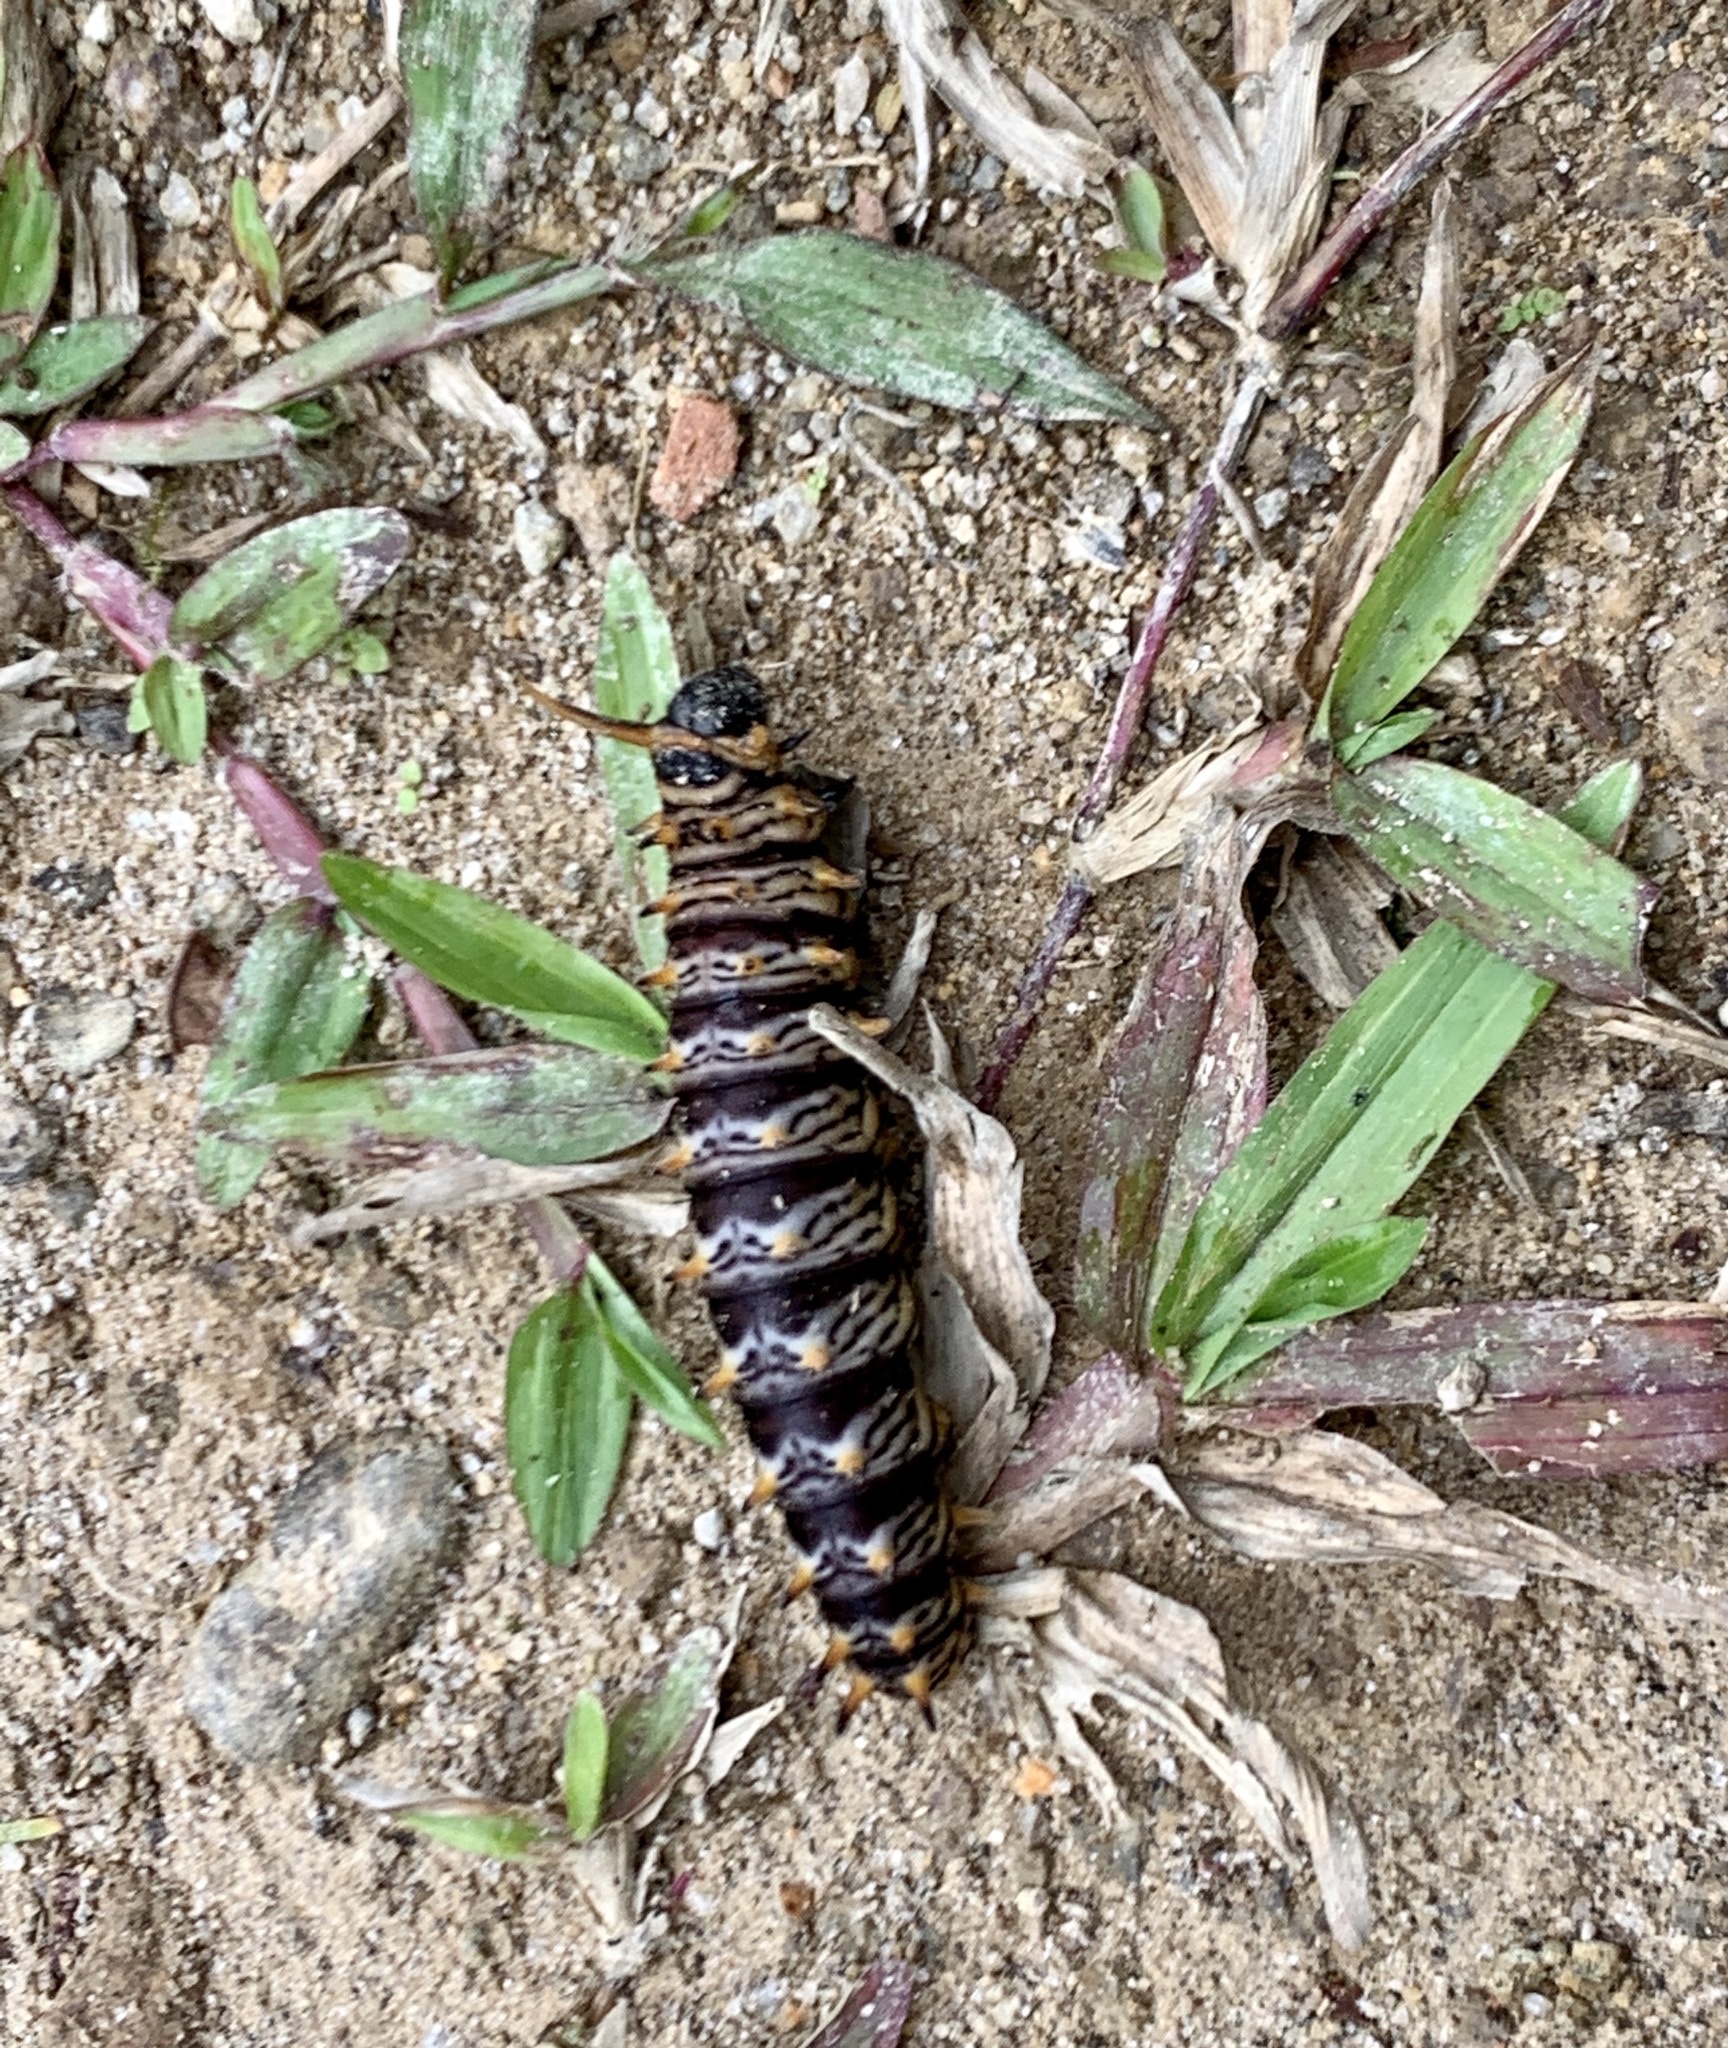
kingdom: Animalia
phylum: Arthropoda
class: Insecta
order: Lepidoptera
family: Papilionidae
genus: Battus
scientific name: Battus ingenuus
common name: Confused swallowtail
